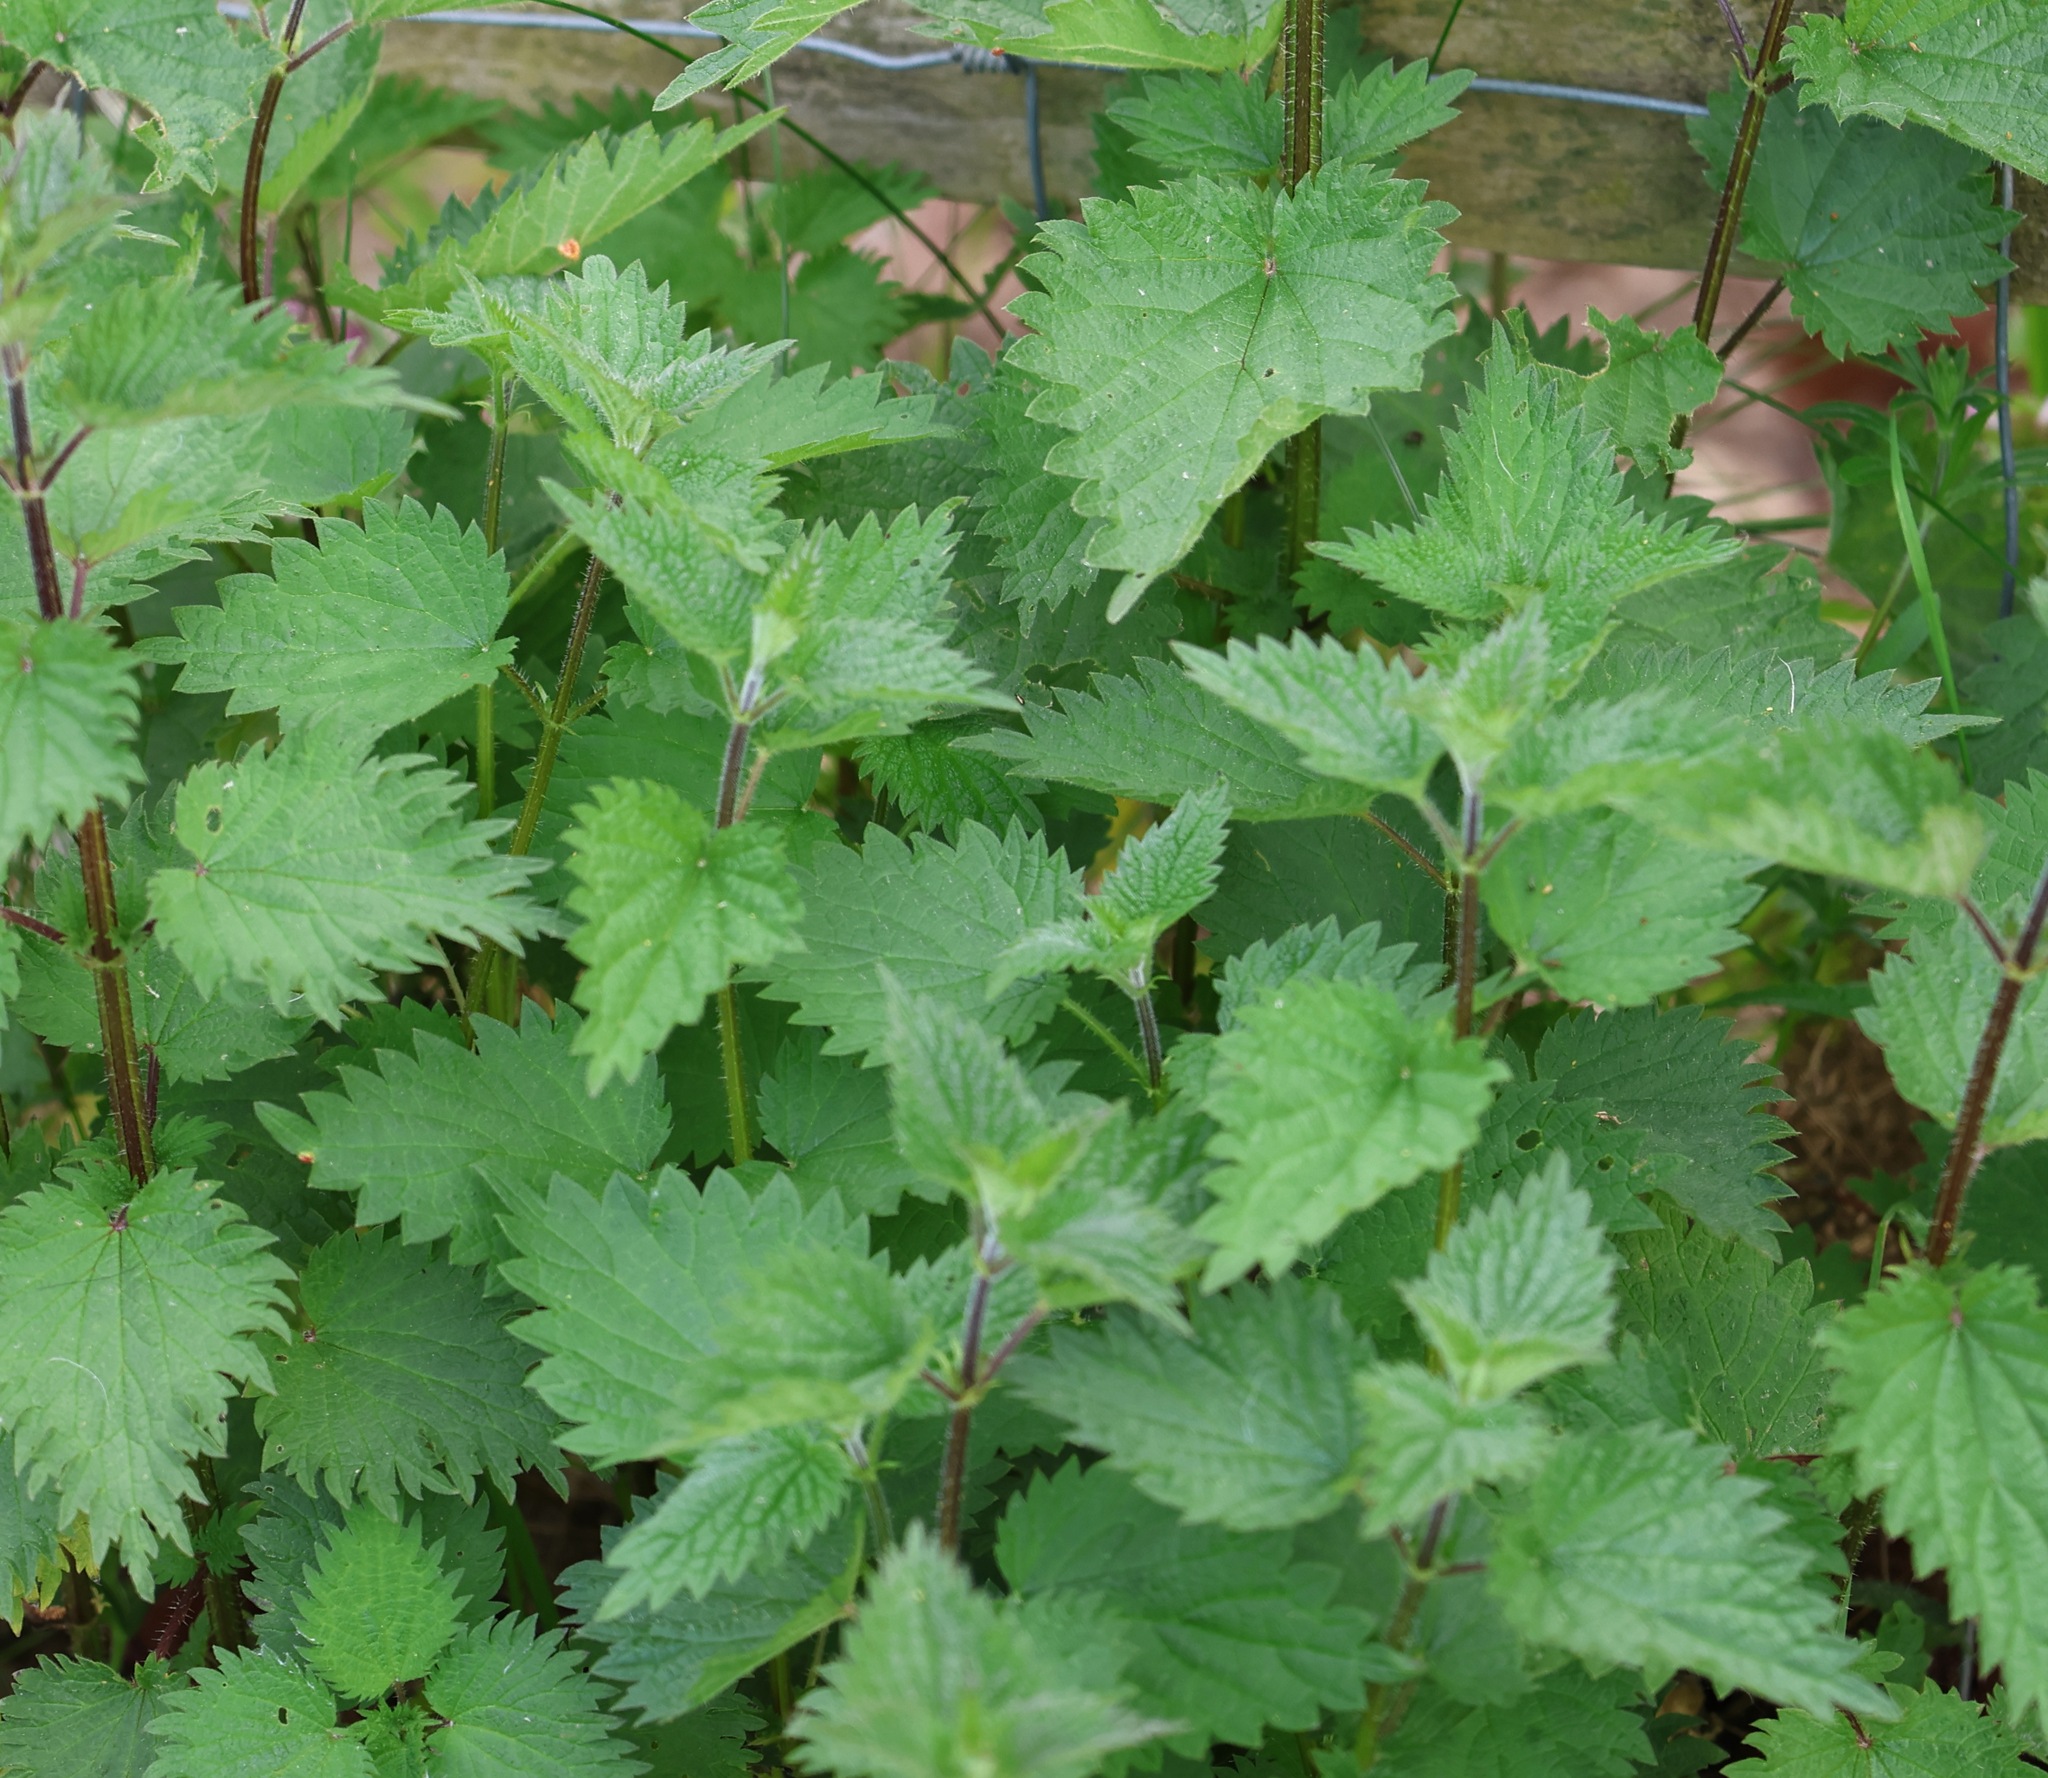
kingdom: Plantae
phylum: Tracheophyta
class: Magnoliopsida
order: Rosales
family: Urticaceae
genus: Urtica
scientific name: Urtica dioica
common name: Common nettle
